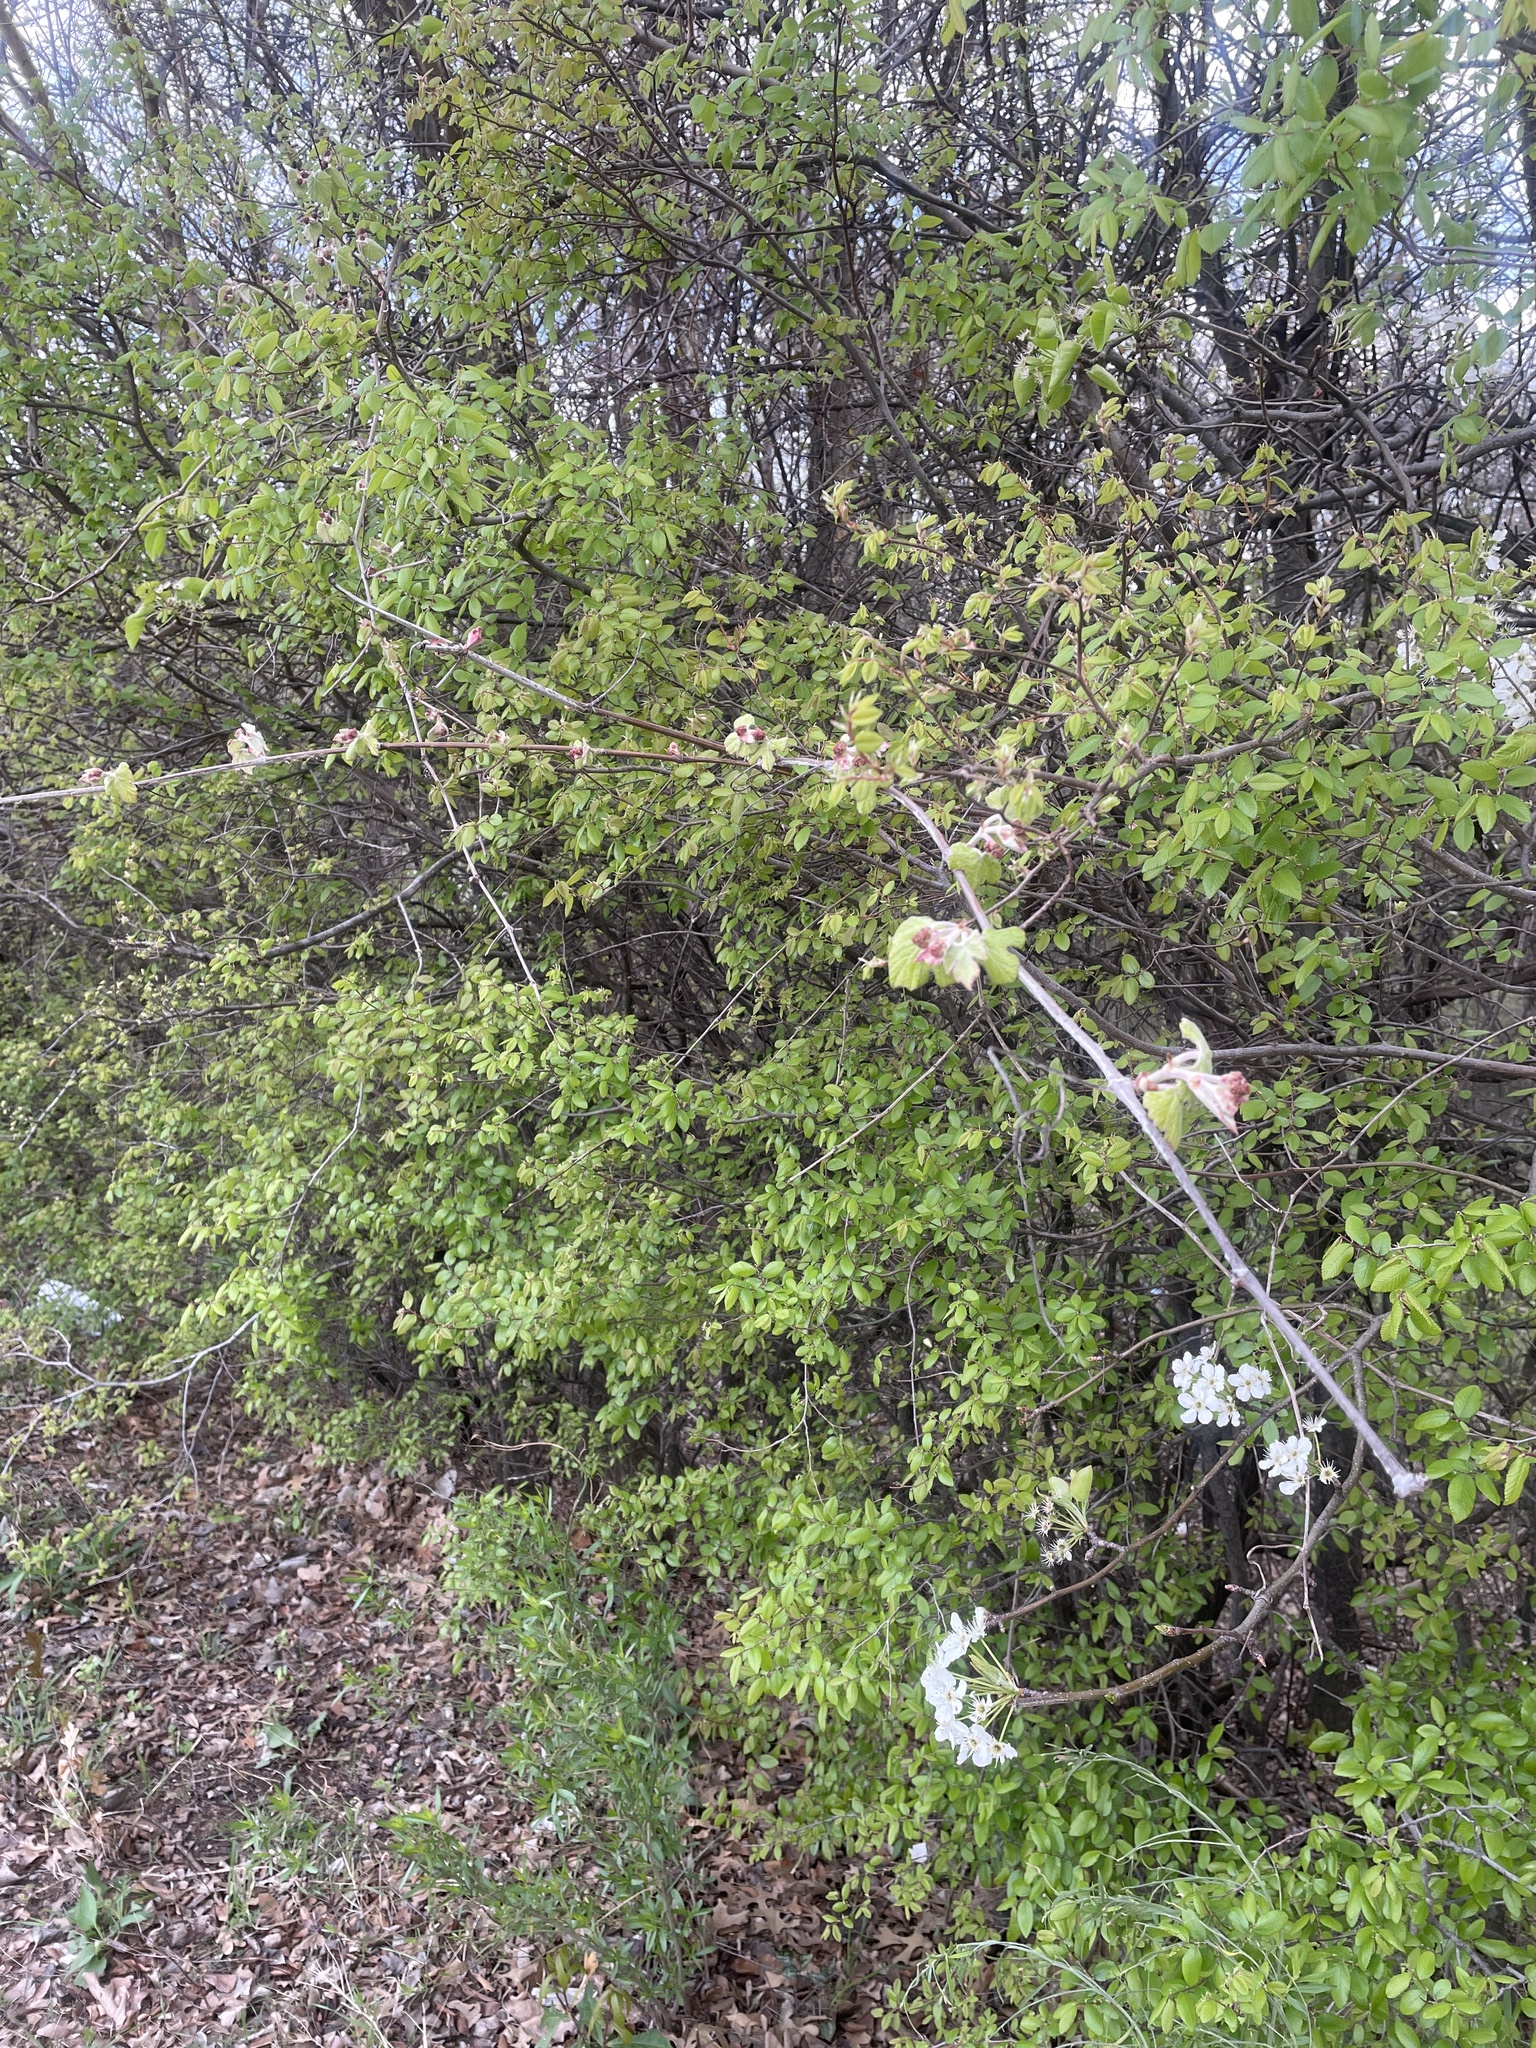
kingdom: Plantae
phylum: Tracheophyta
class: Magnoliopsida
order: Vitales
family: Vitaceae
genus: Vitis
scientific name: Vitis mustangensis
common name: Mustang grape
